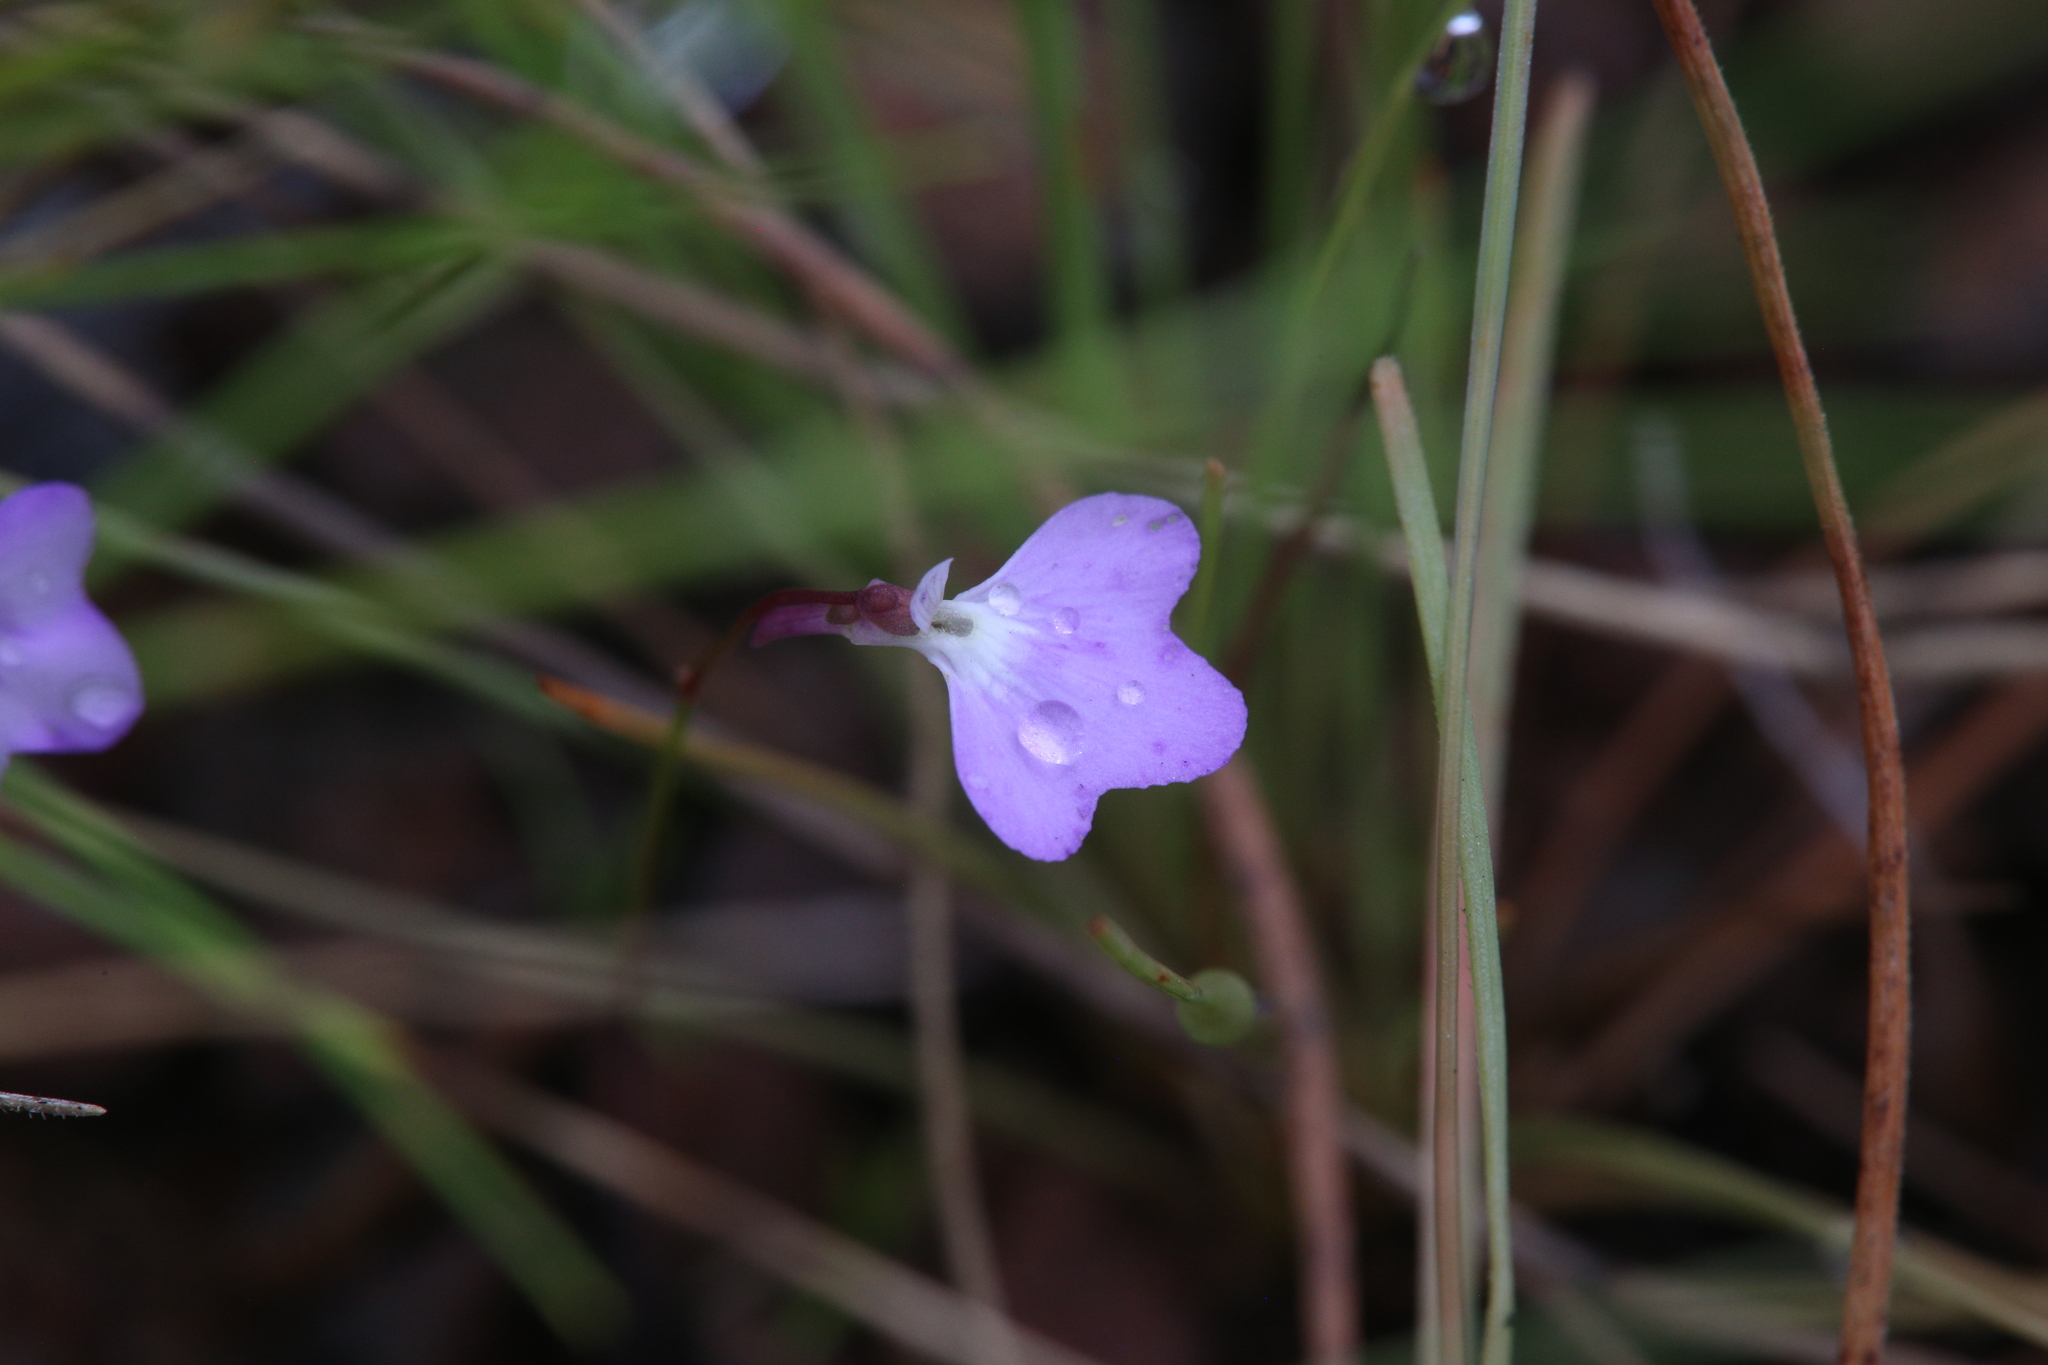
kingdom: Plantae
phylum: Tracheophyta
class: Magnoliopsida
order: Lamiales
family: Lentibulariaceae
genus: Utricularia
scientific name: Utricularia leptorhyncha
